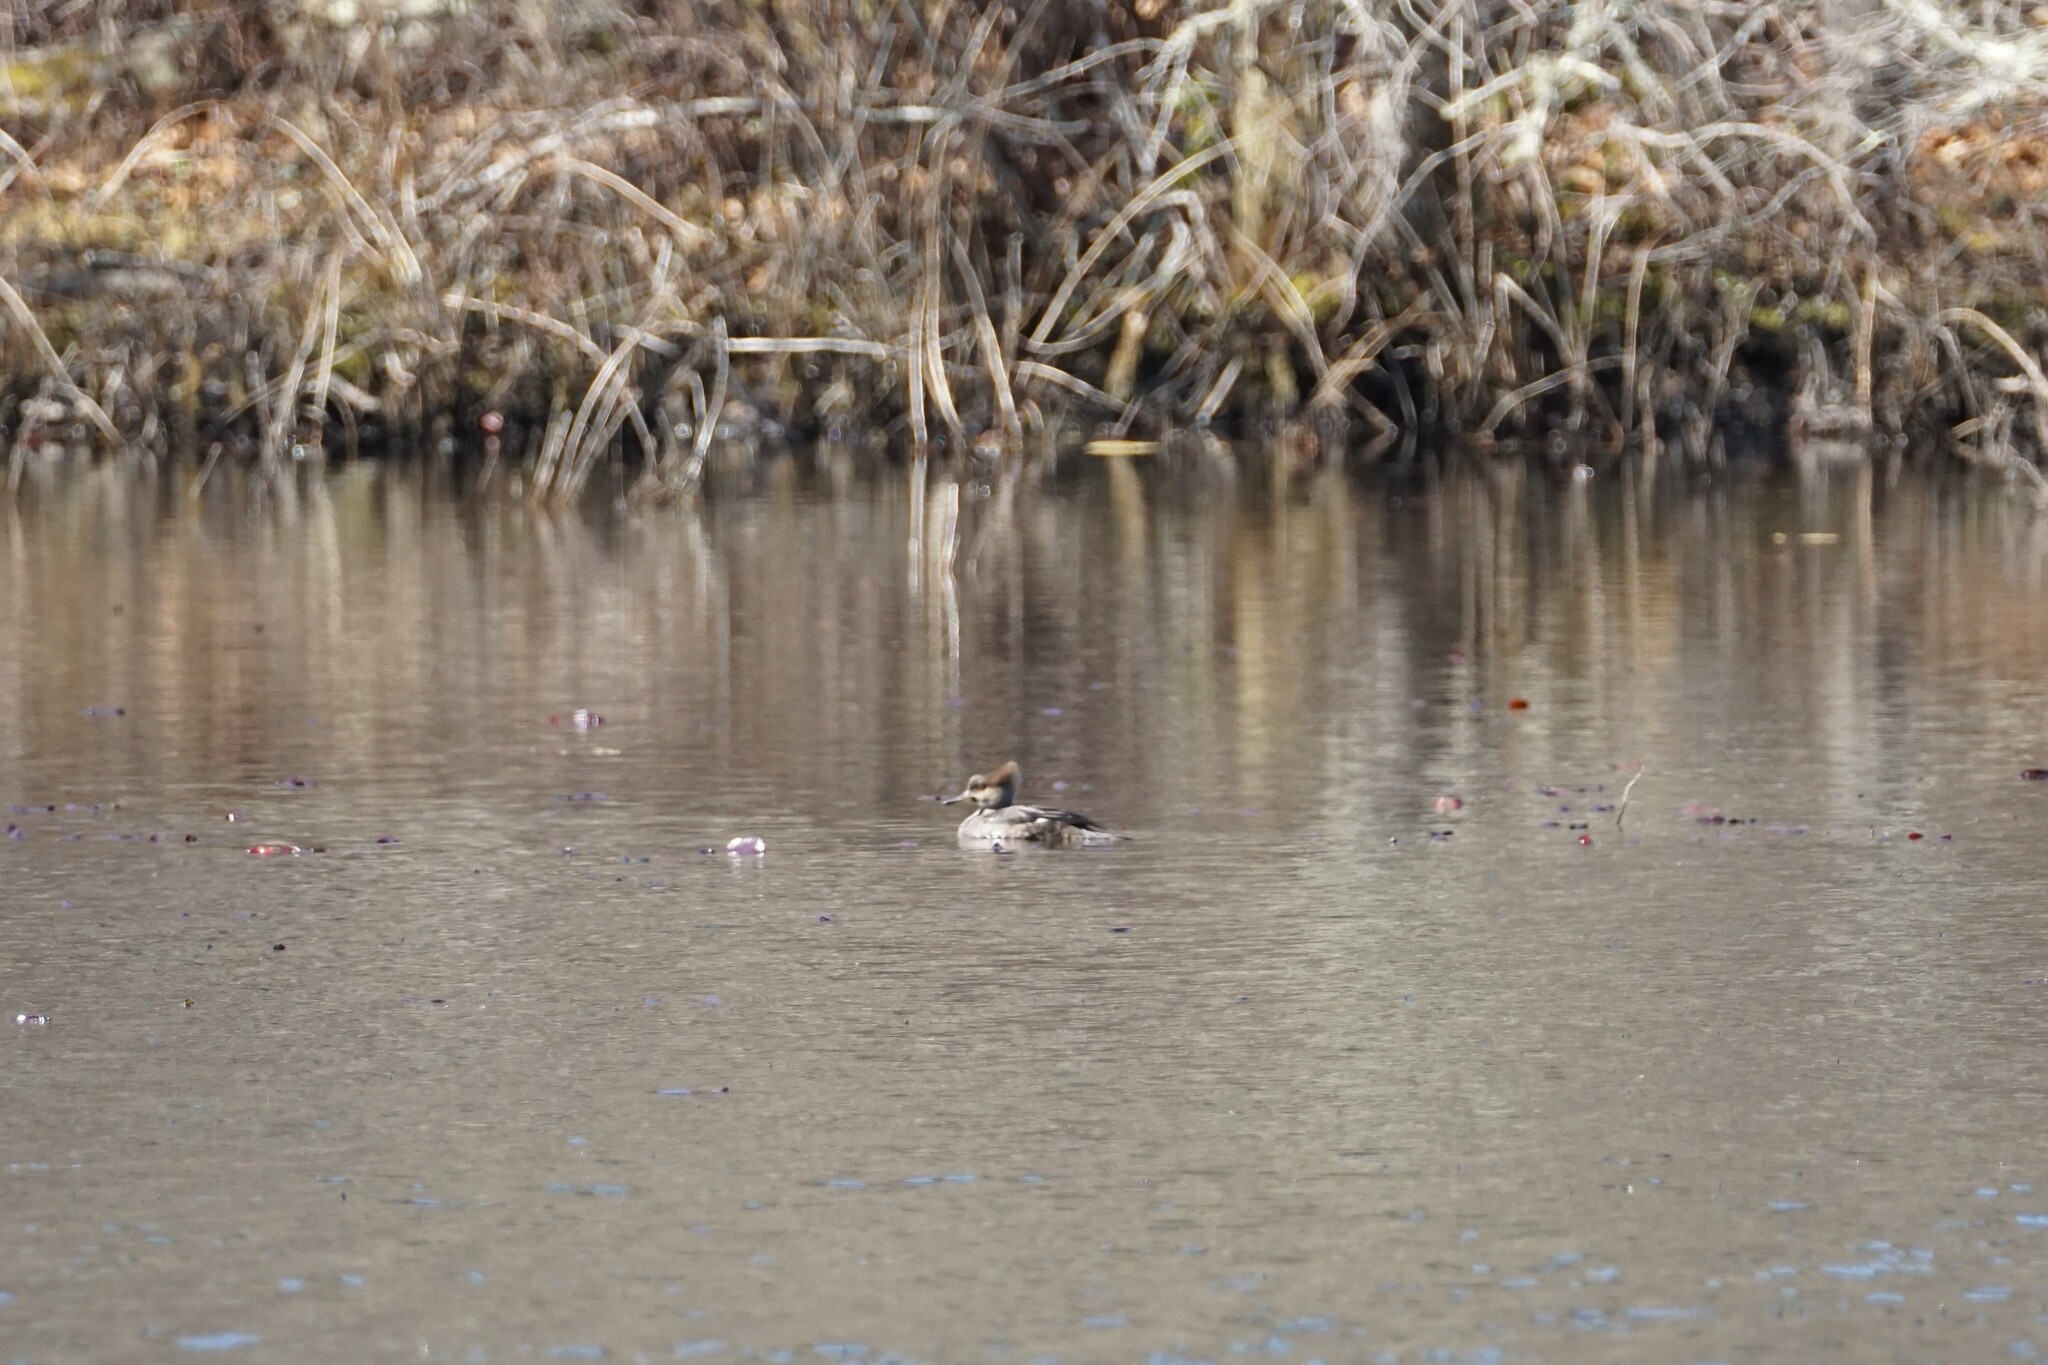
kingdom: Animalia
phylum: Chordata
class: Aves
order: Anseriformes
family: Anatidae
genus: Lophodytes
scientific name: Lophodytes cucullatus
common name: Hooded merganser
